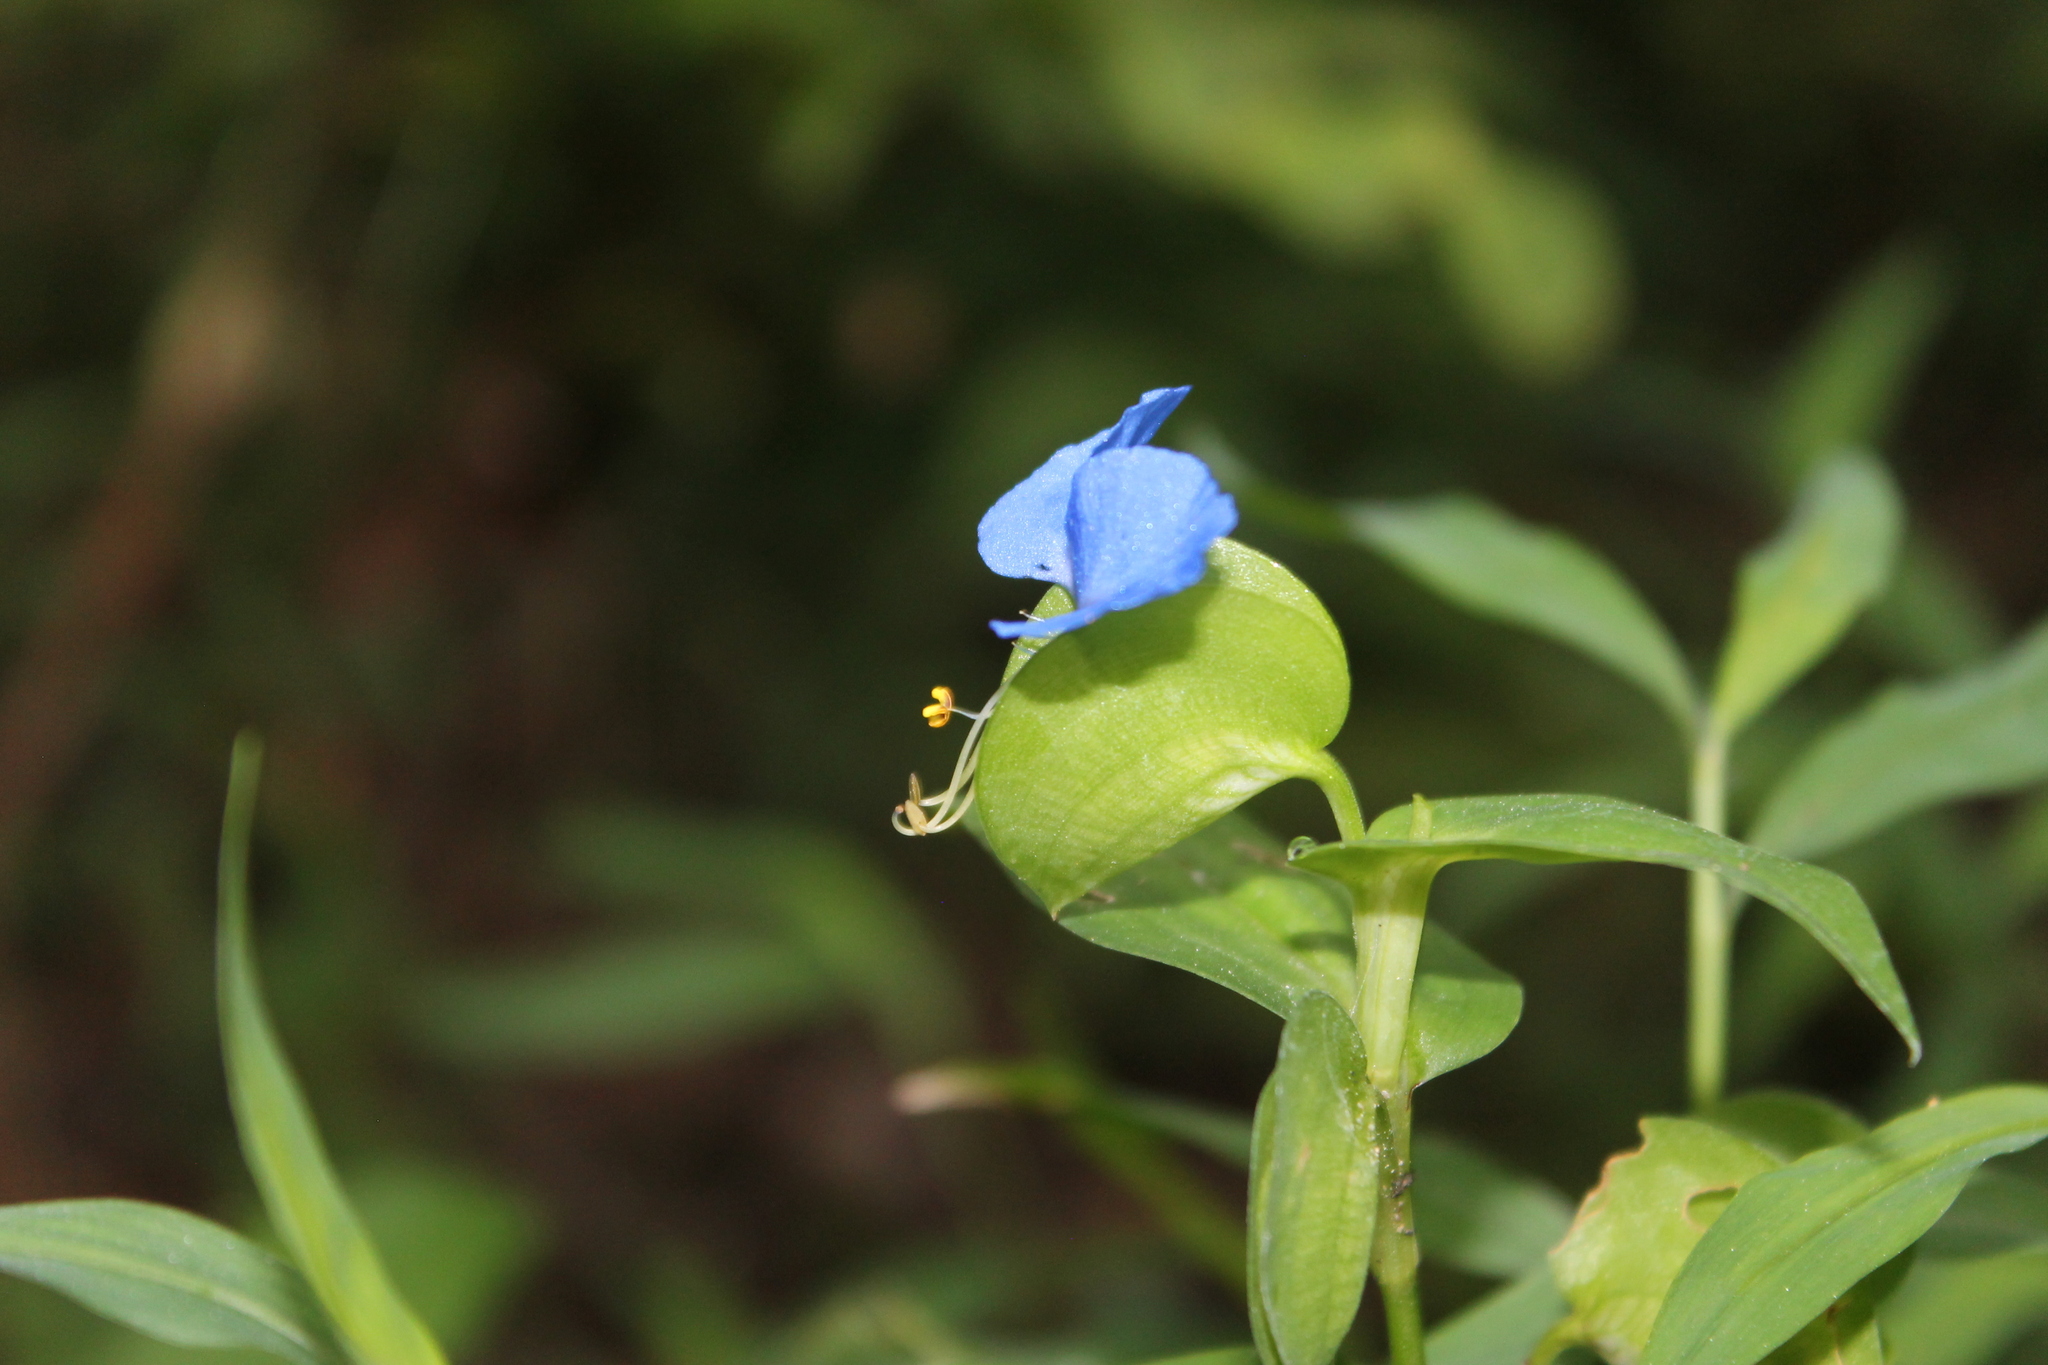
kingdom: Plantae
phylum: Tracheophyta
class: Liliopsida
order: Commelinales
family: Commelinaceae
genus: Commelina
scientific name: Commelina communis
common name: Asiatic dayflower
